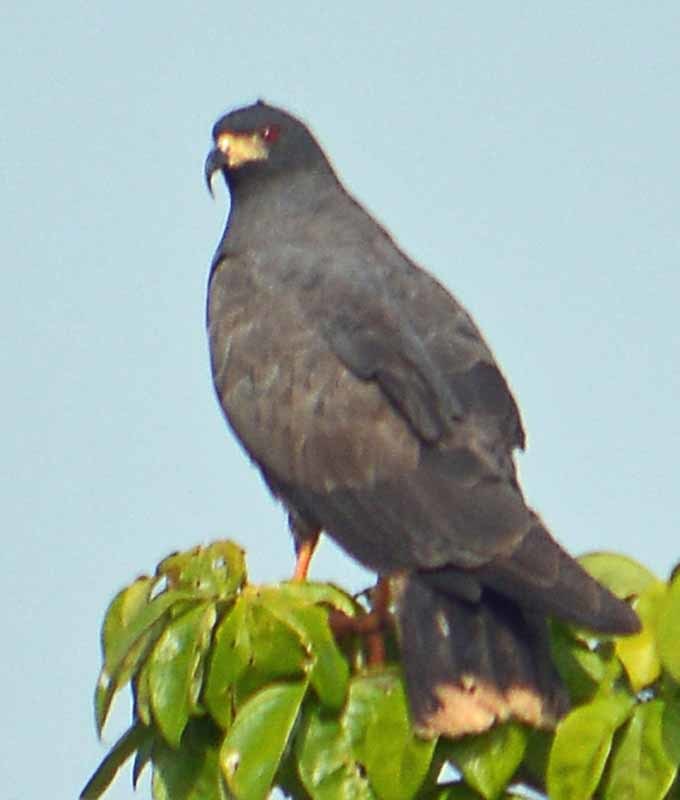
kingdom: Animalia
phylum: Chordata
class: Aves
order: Accipitriformes
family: Accipitridae
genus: Rostrhamus
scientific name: Rostrhamus sociabilis
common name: Snail kite
